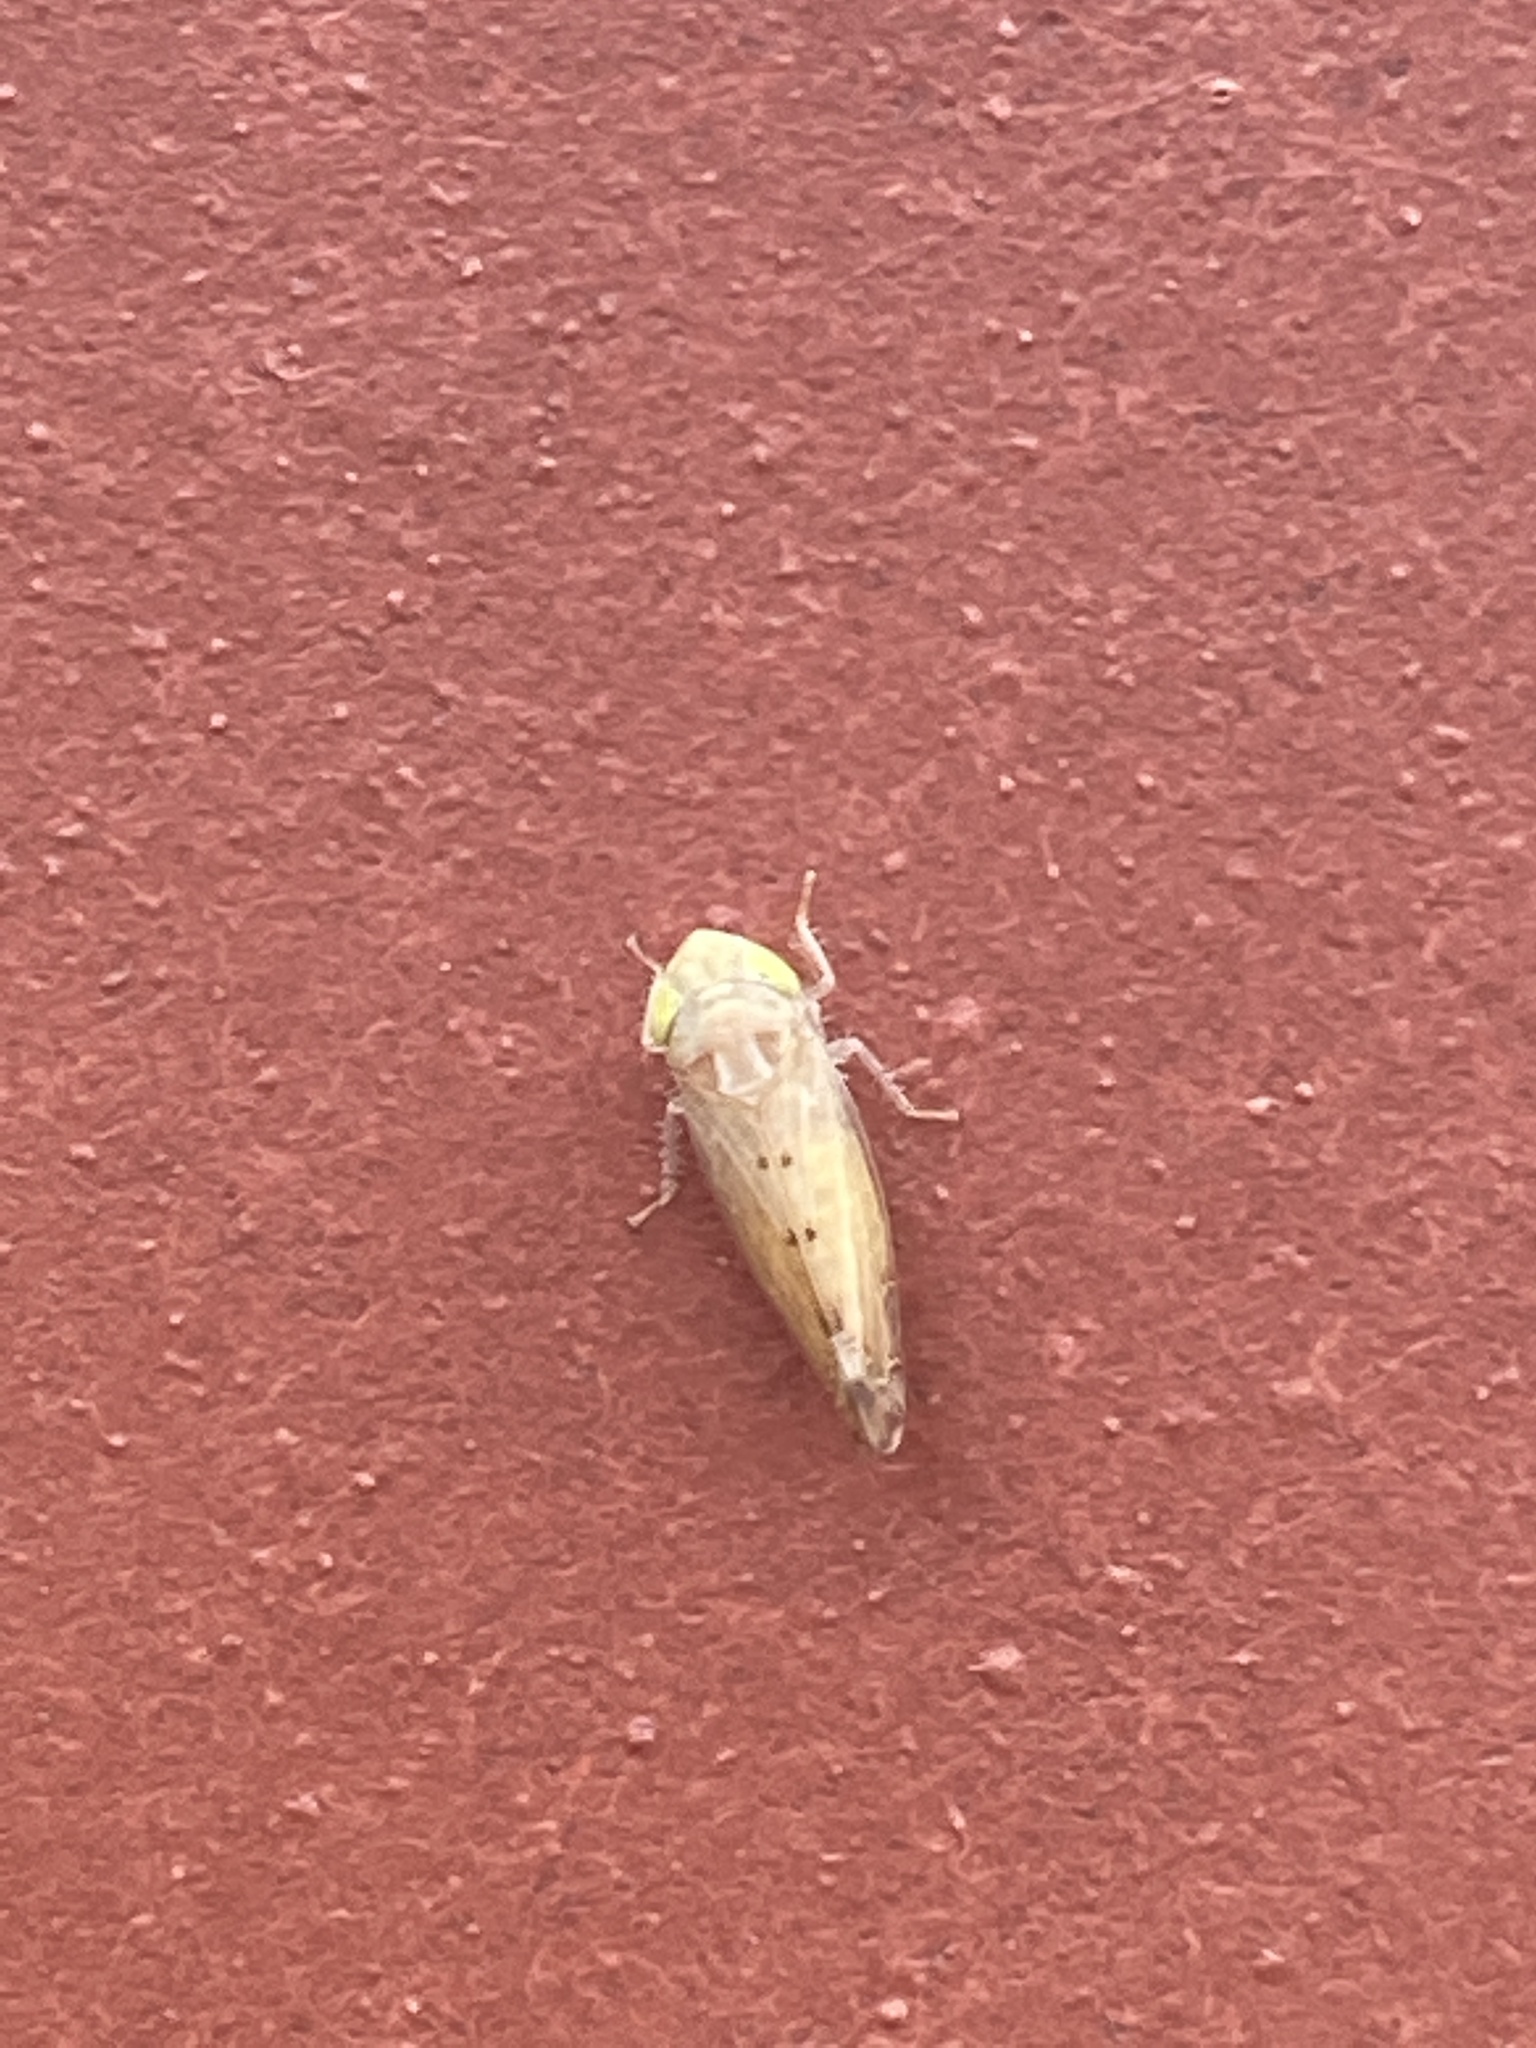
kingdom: Animalia
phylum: Arthropoda
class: Insecta
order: Hemiptera
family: Cicadellidae
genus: Synophropsis
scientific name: Synophropsis lauri
